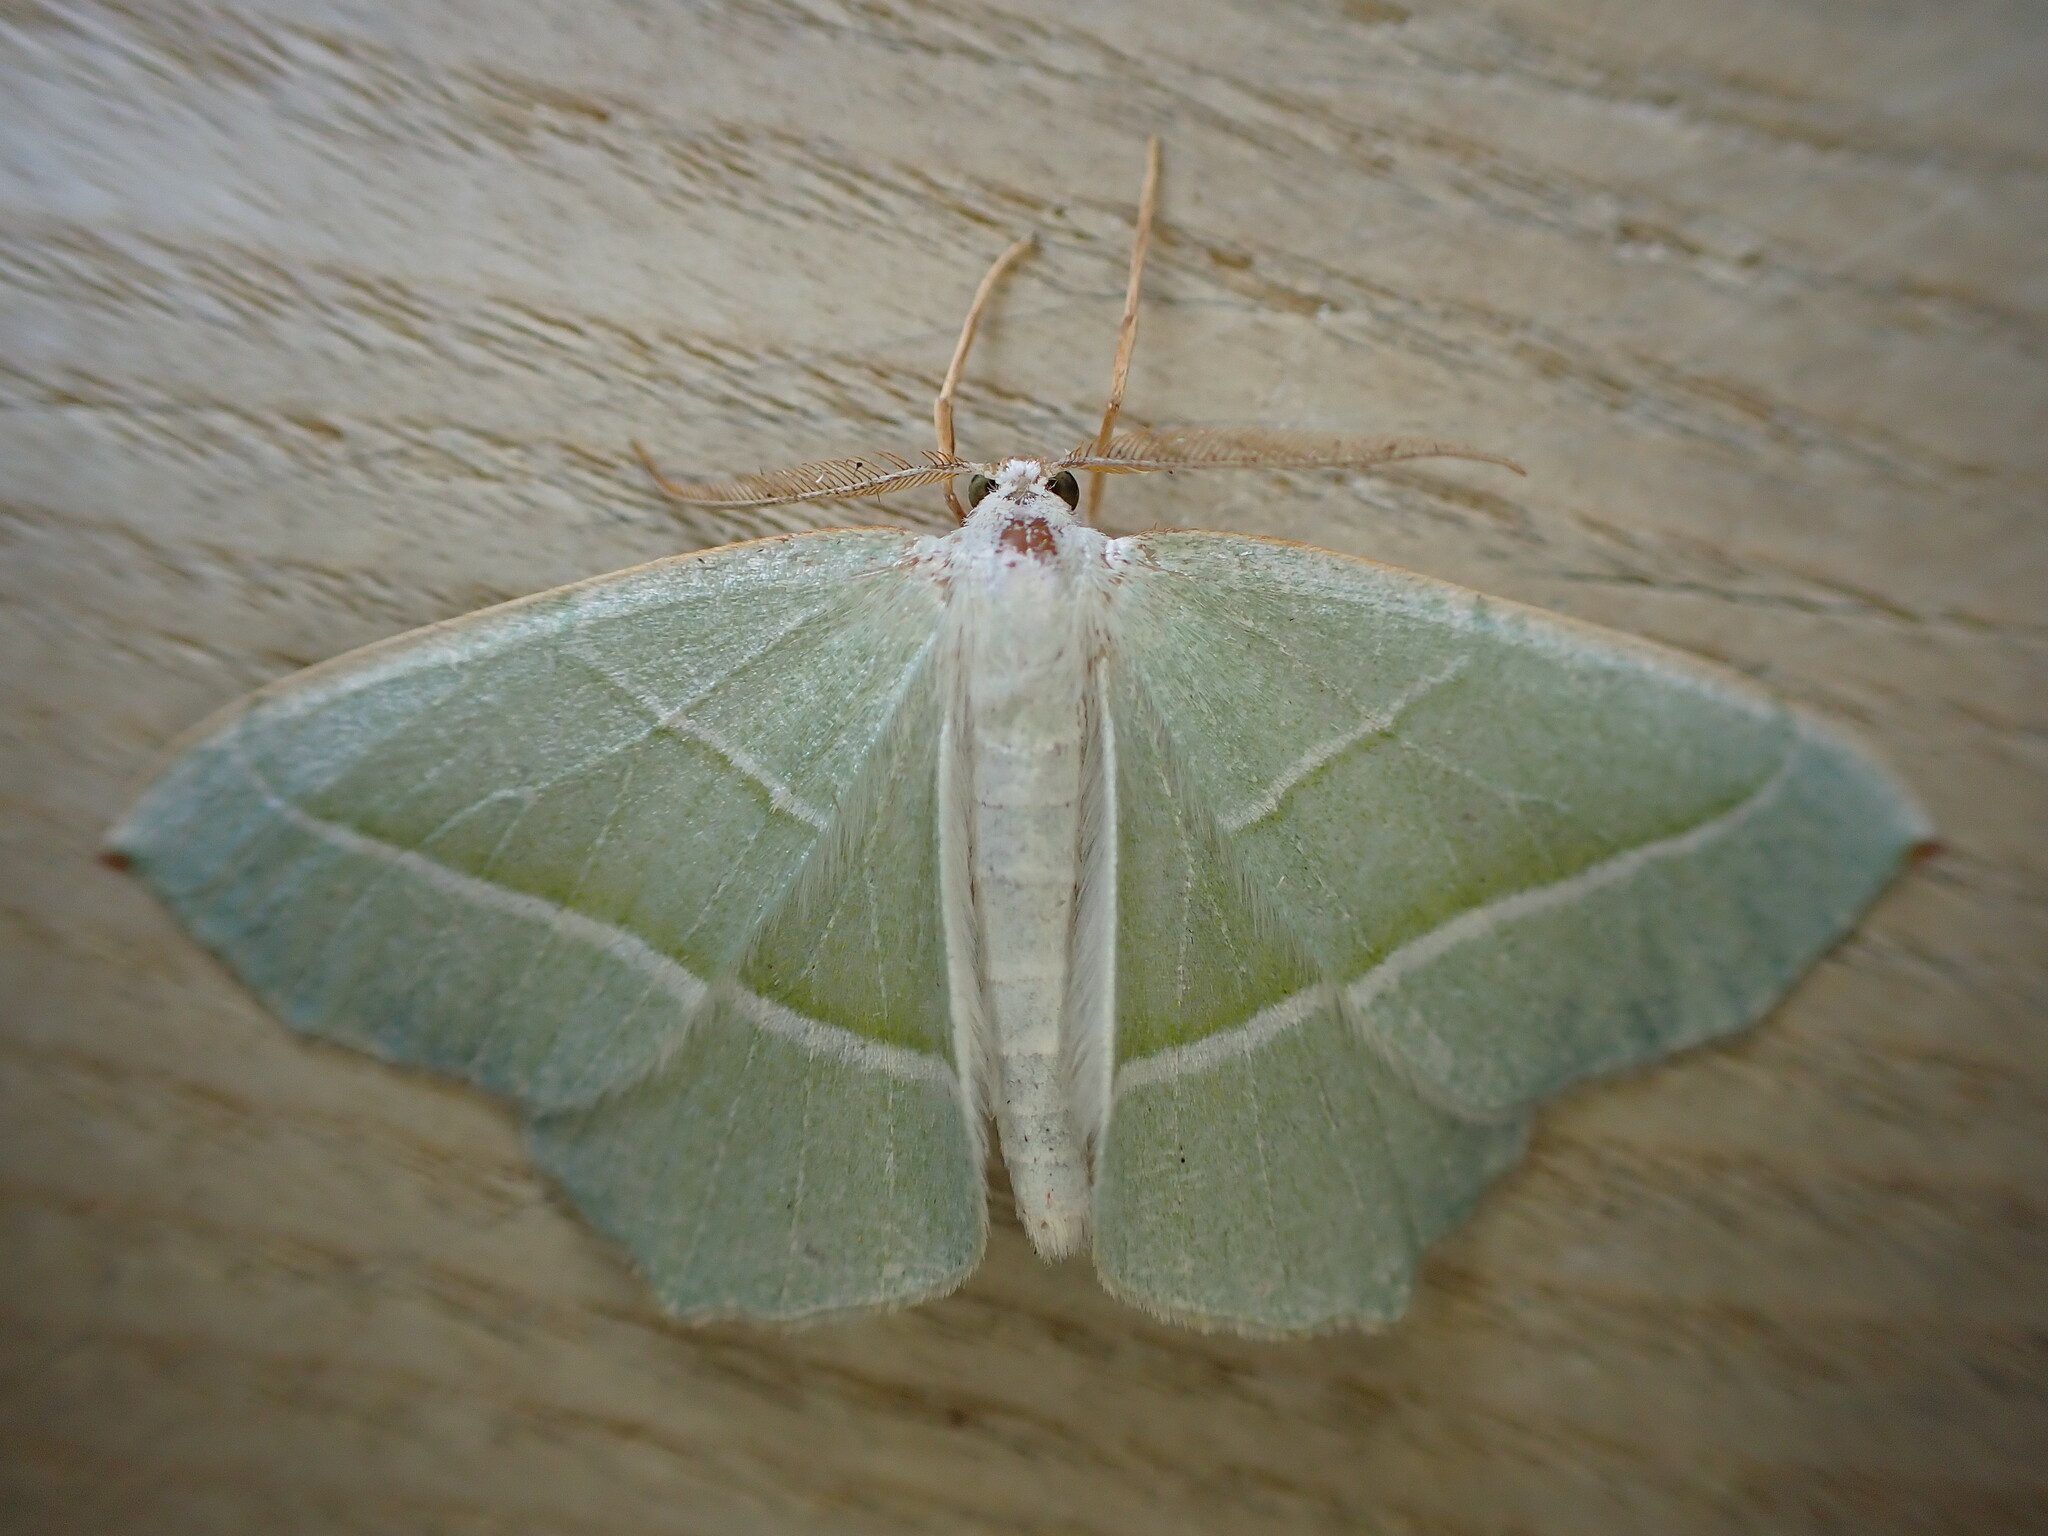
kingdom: Animalia
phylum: Arthropoda
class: Insecta
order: Lepidoptera
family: Geometridae
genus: Campaea
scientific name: Campaea margaritaria
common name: Light emerald
